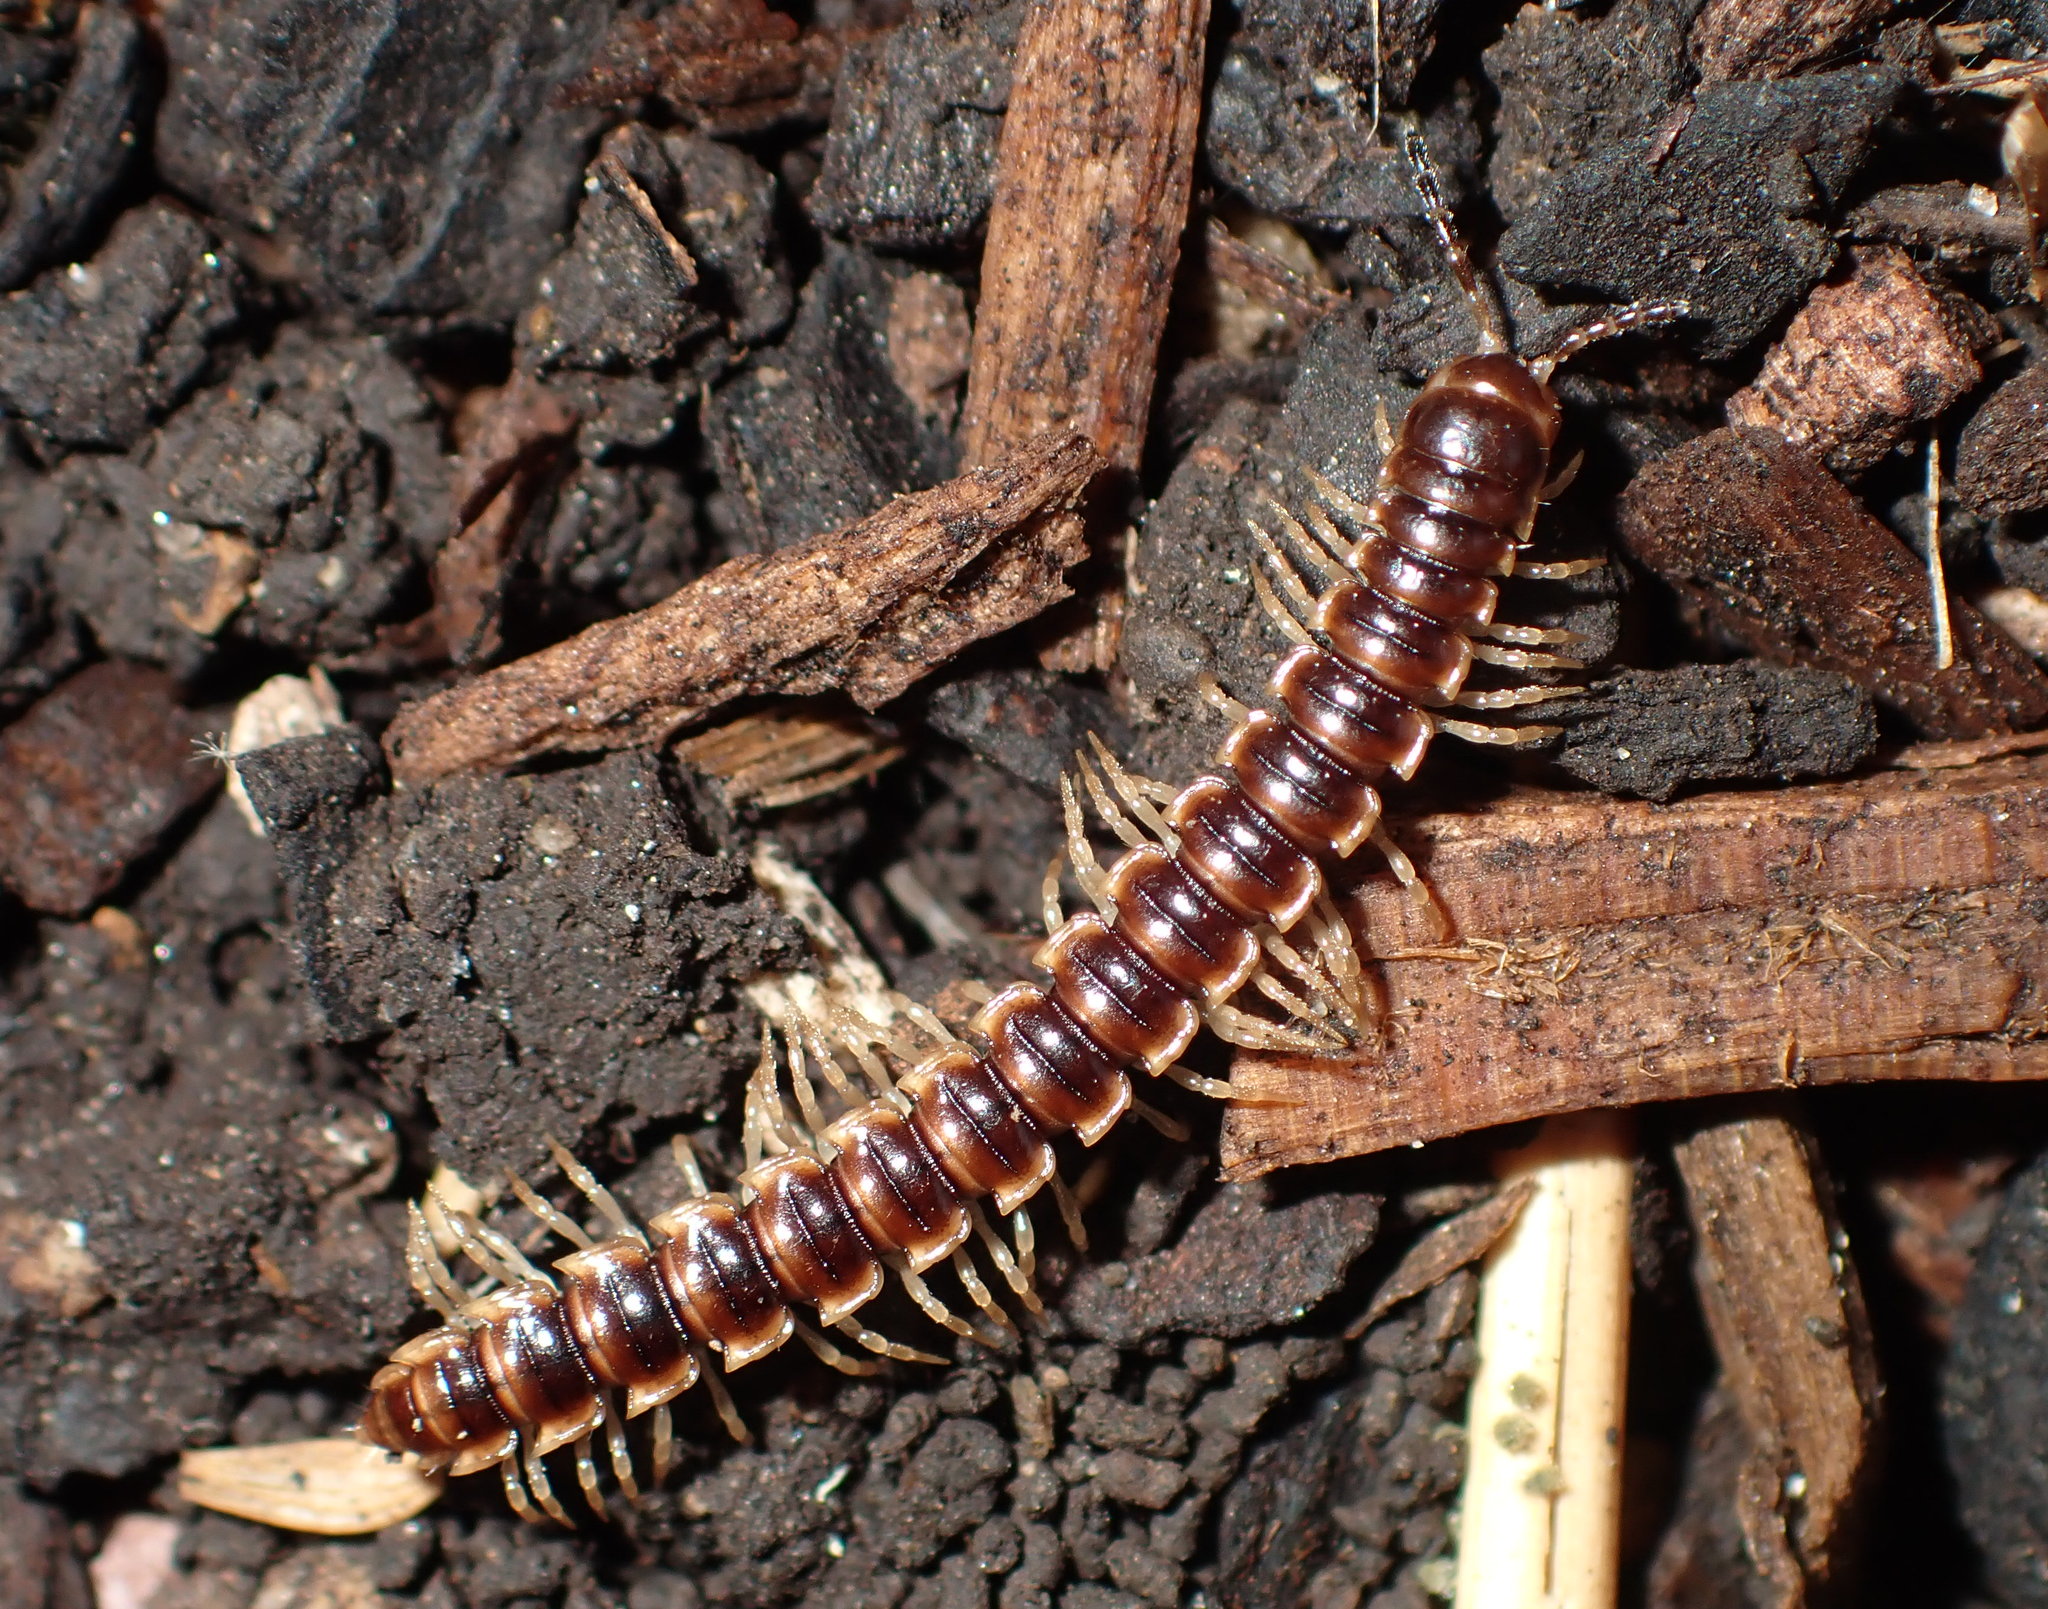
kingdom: Animalia
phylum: Arthropoda
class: Diplopoda
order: Polydesmida
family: Paradoxosomatidae
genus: Oxidus
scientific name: Oxidus gracilis
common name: Greenhouse millipede
